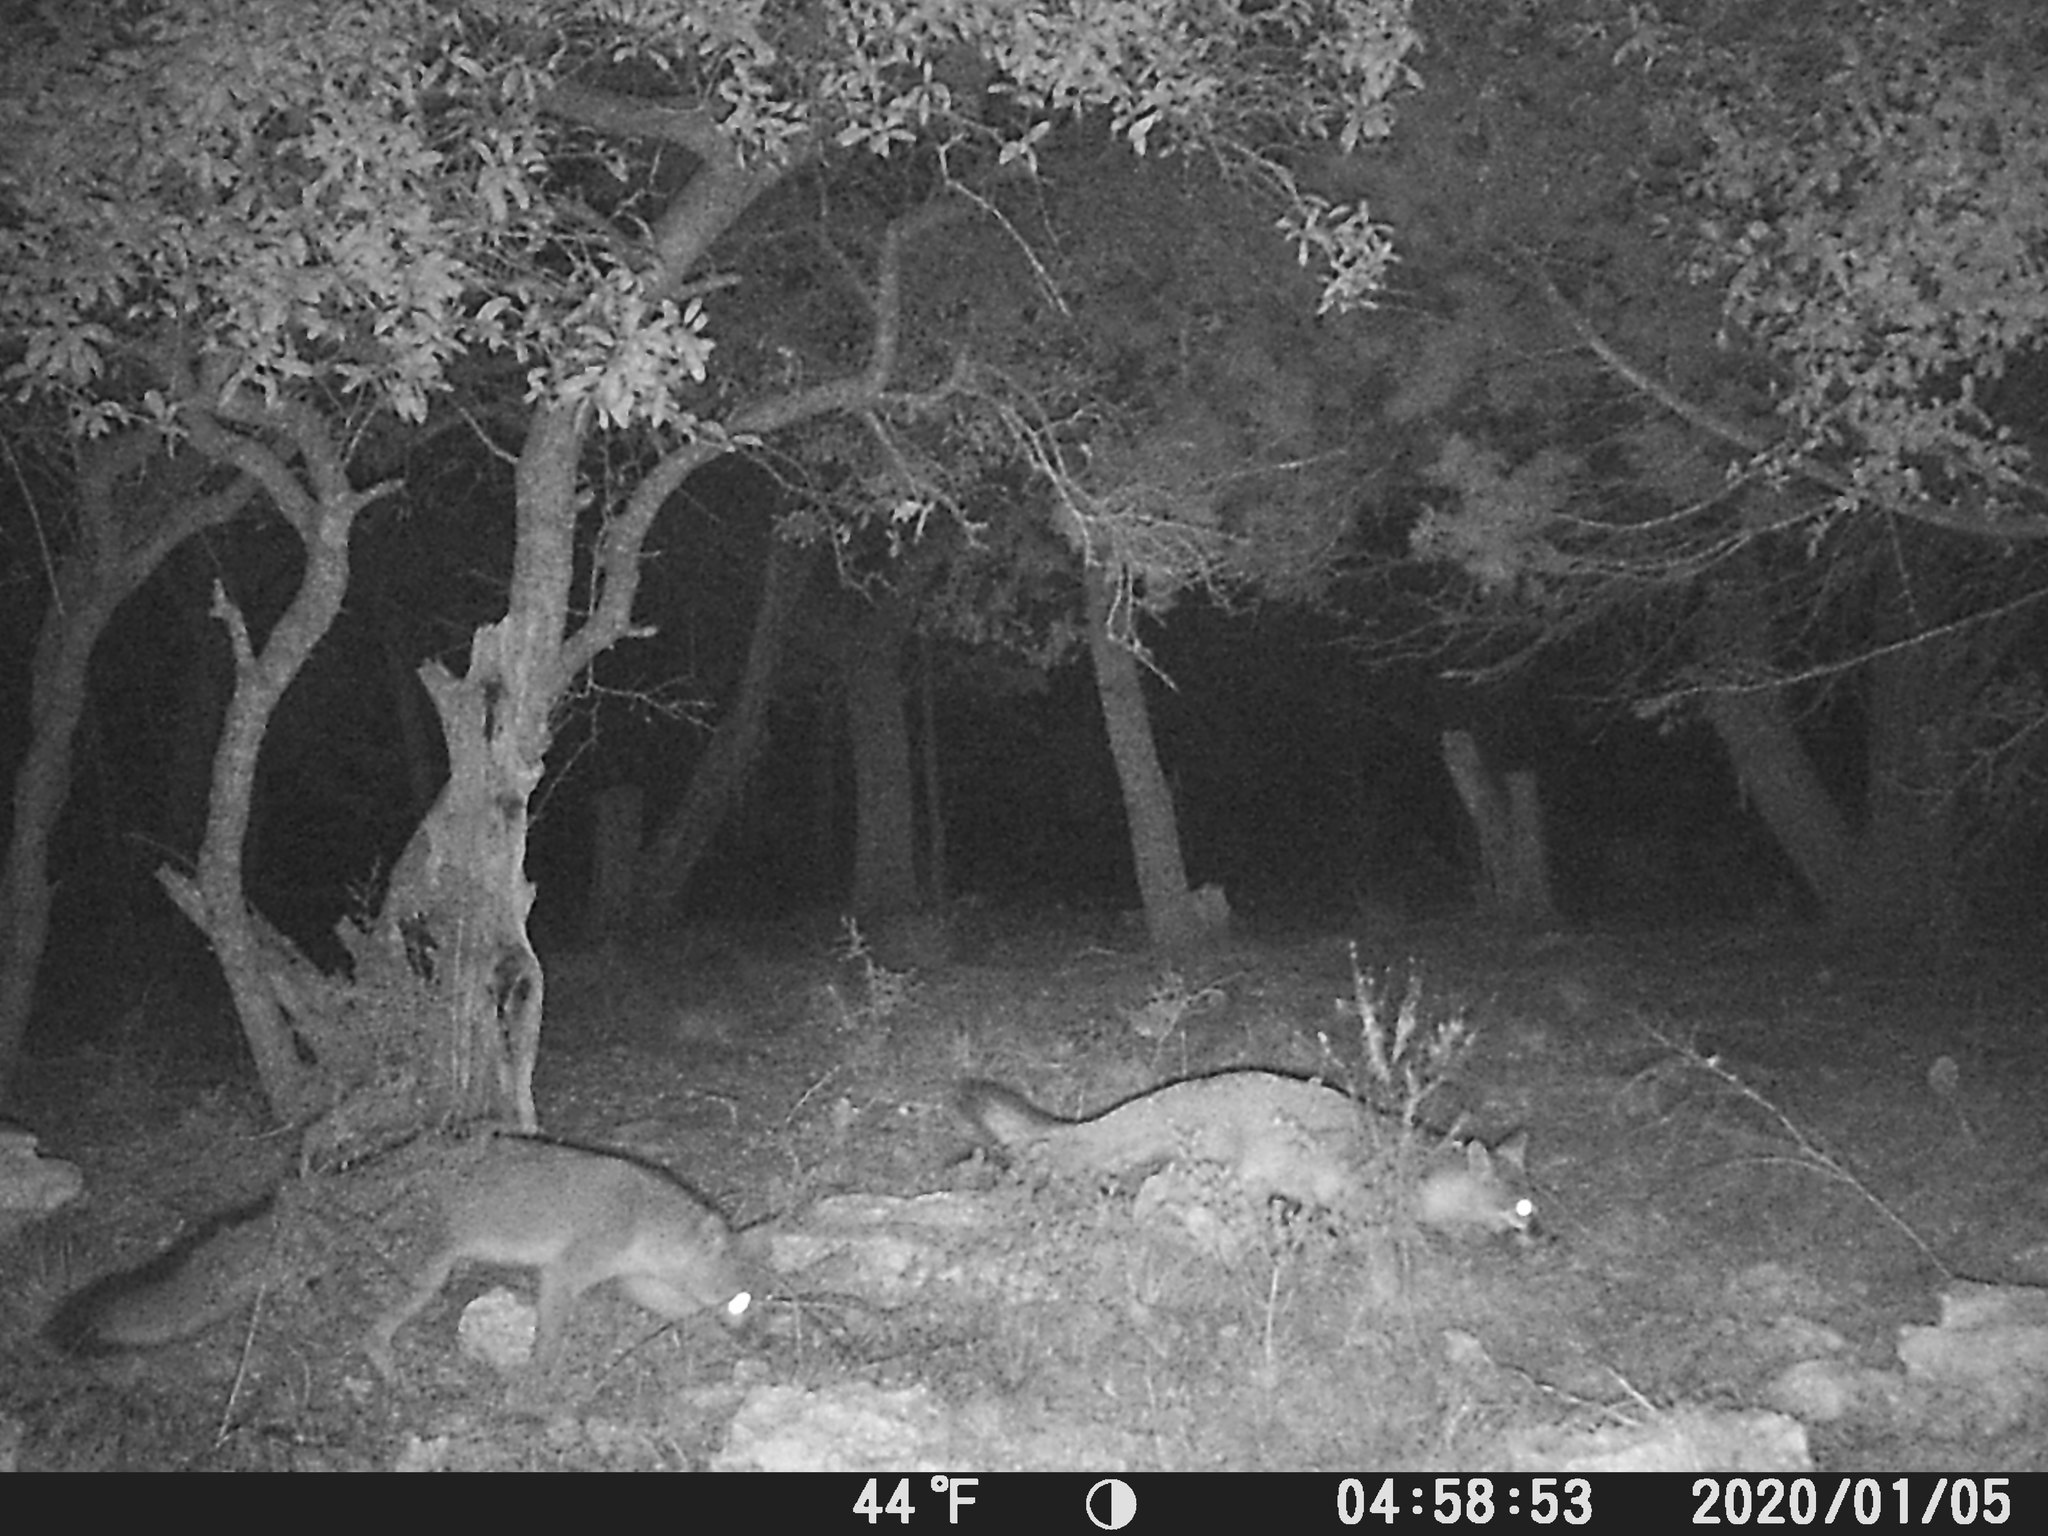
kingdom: Animalia
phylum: Chordata
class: Mammalia
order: Carnivora
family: Canidae
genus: Urocyon
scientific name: Urocyon cinereoargenteus
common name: Gray fox
